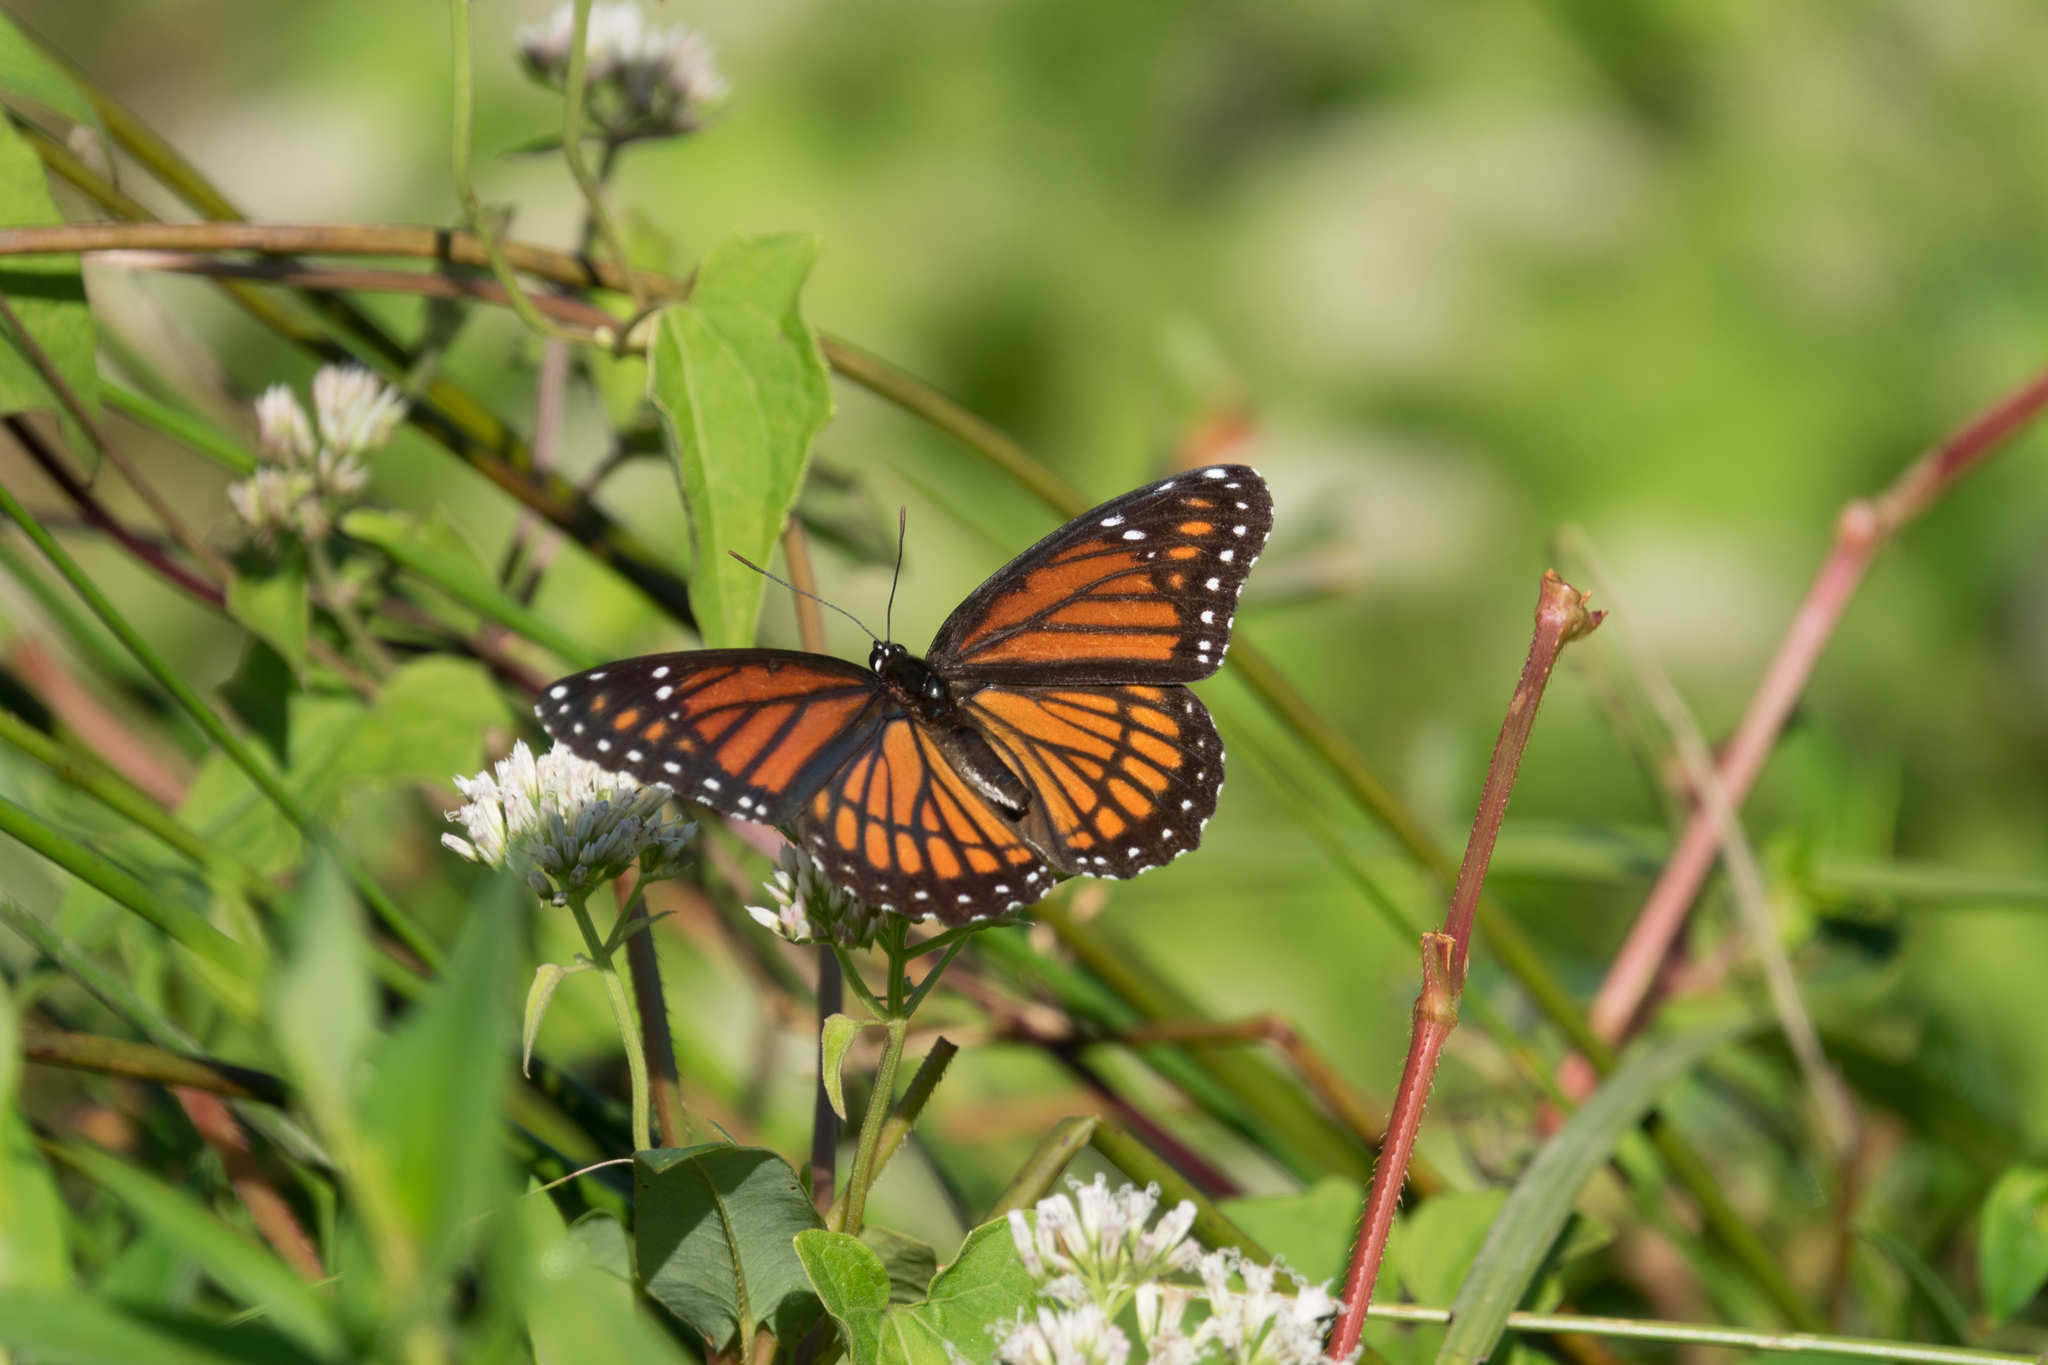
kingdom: Animalia
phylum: Arthropoda
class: Insecta
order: Lepidoptera
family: Nymphalidae
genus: Limenitis
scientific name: Limenitis archippus
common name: Viceroy
